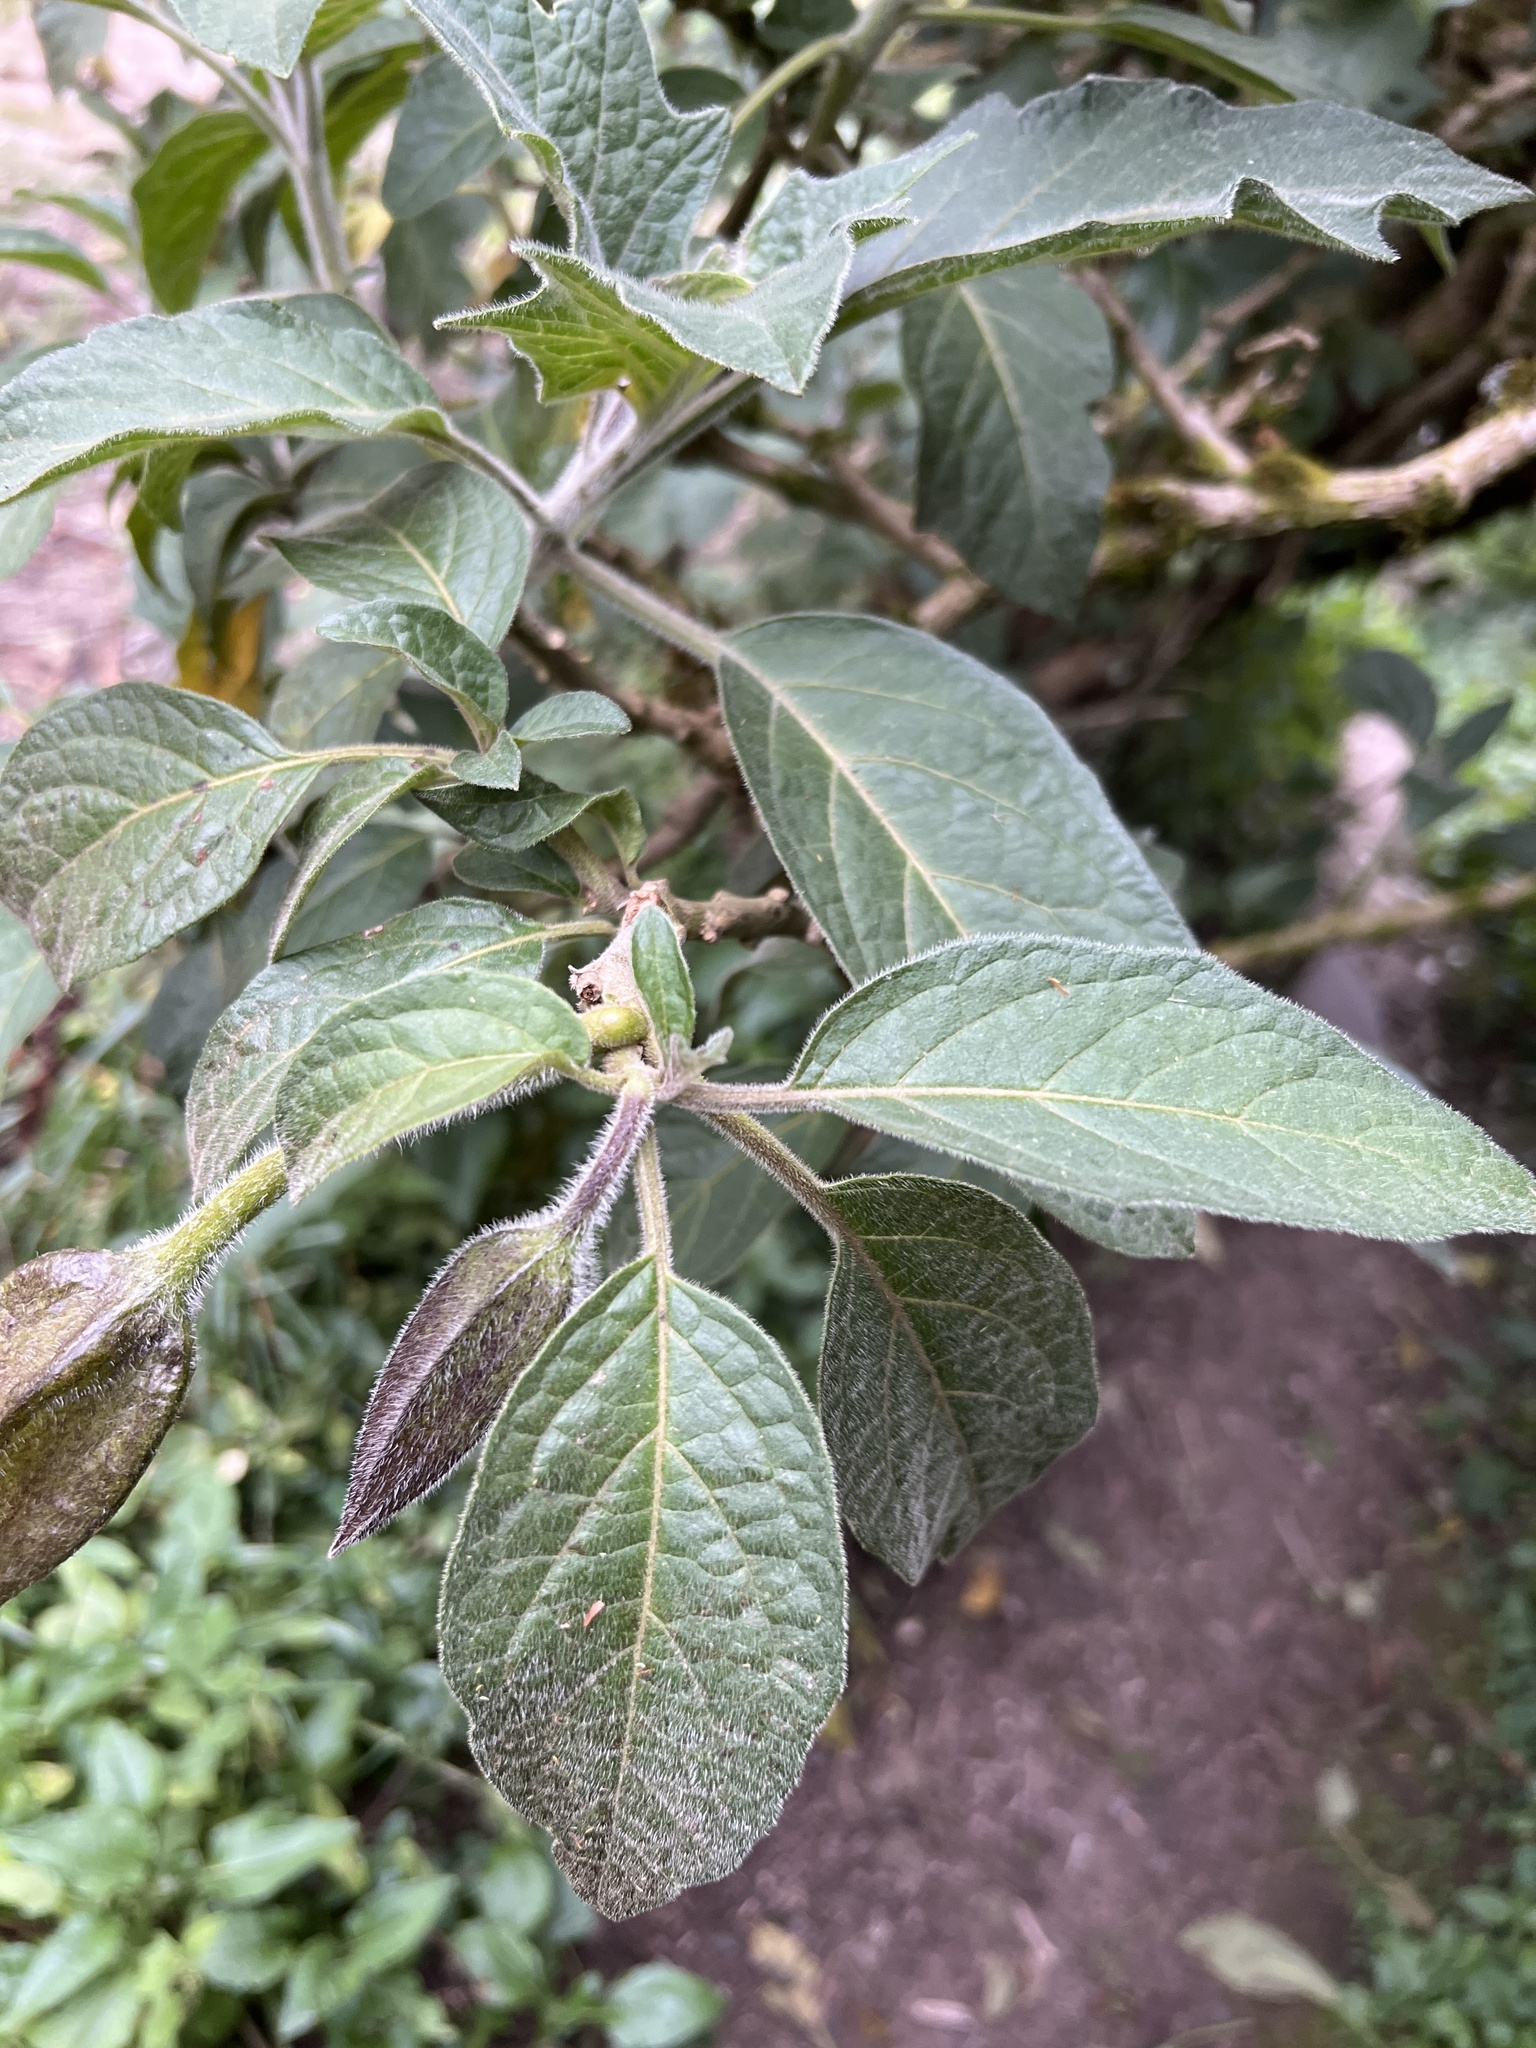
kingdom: Plantae
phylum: Tracheophyta
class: Magnoliopsida
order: Solanales
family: Solanaceae
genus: Brugmansia
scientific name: Brugmansia sanguinea
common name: Red floripontio
